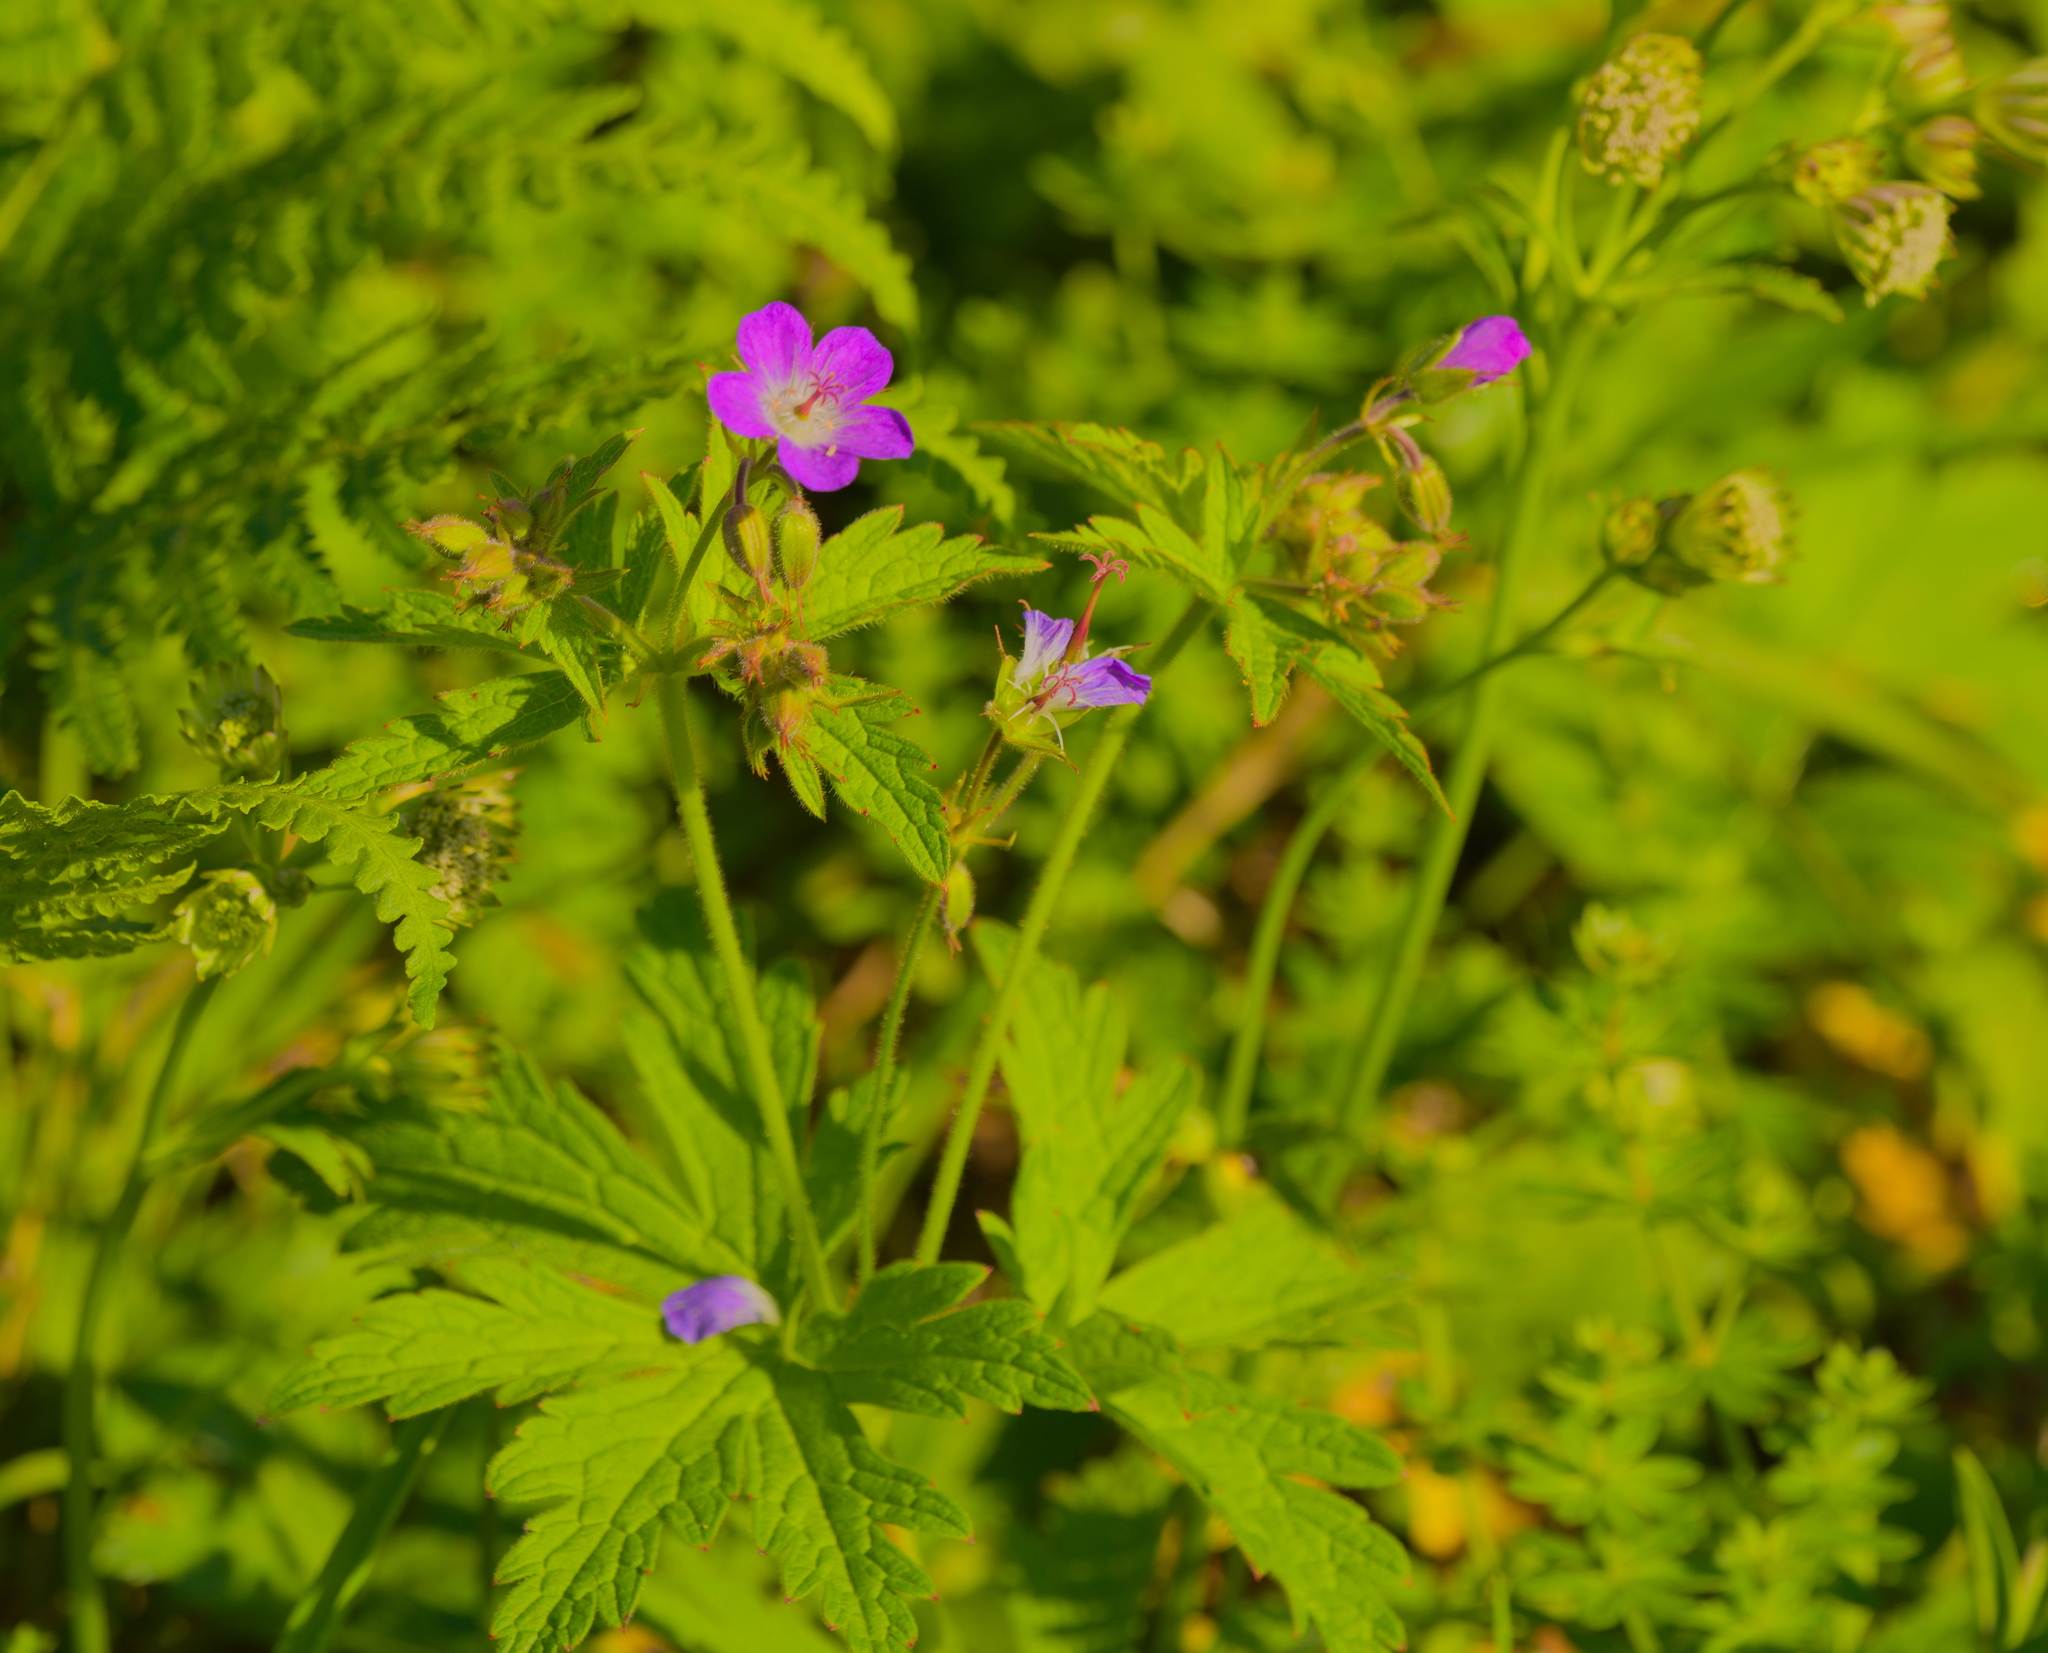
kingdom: Plantae
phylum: Tracheophyta
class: Magnoliopsida
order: Geraniales
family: Geraniaceae
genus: Geranium
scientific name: Geranium sylvaticum
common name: Wood crane's-bill
